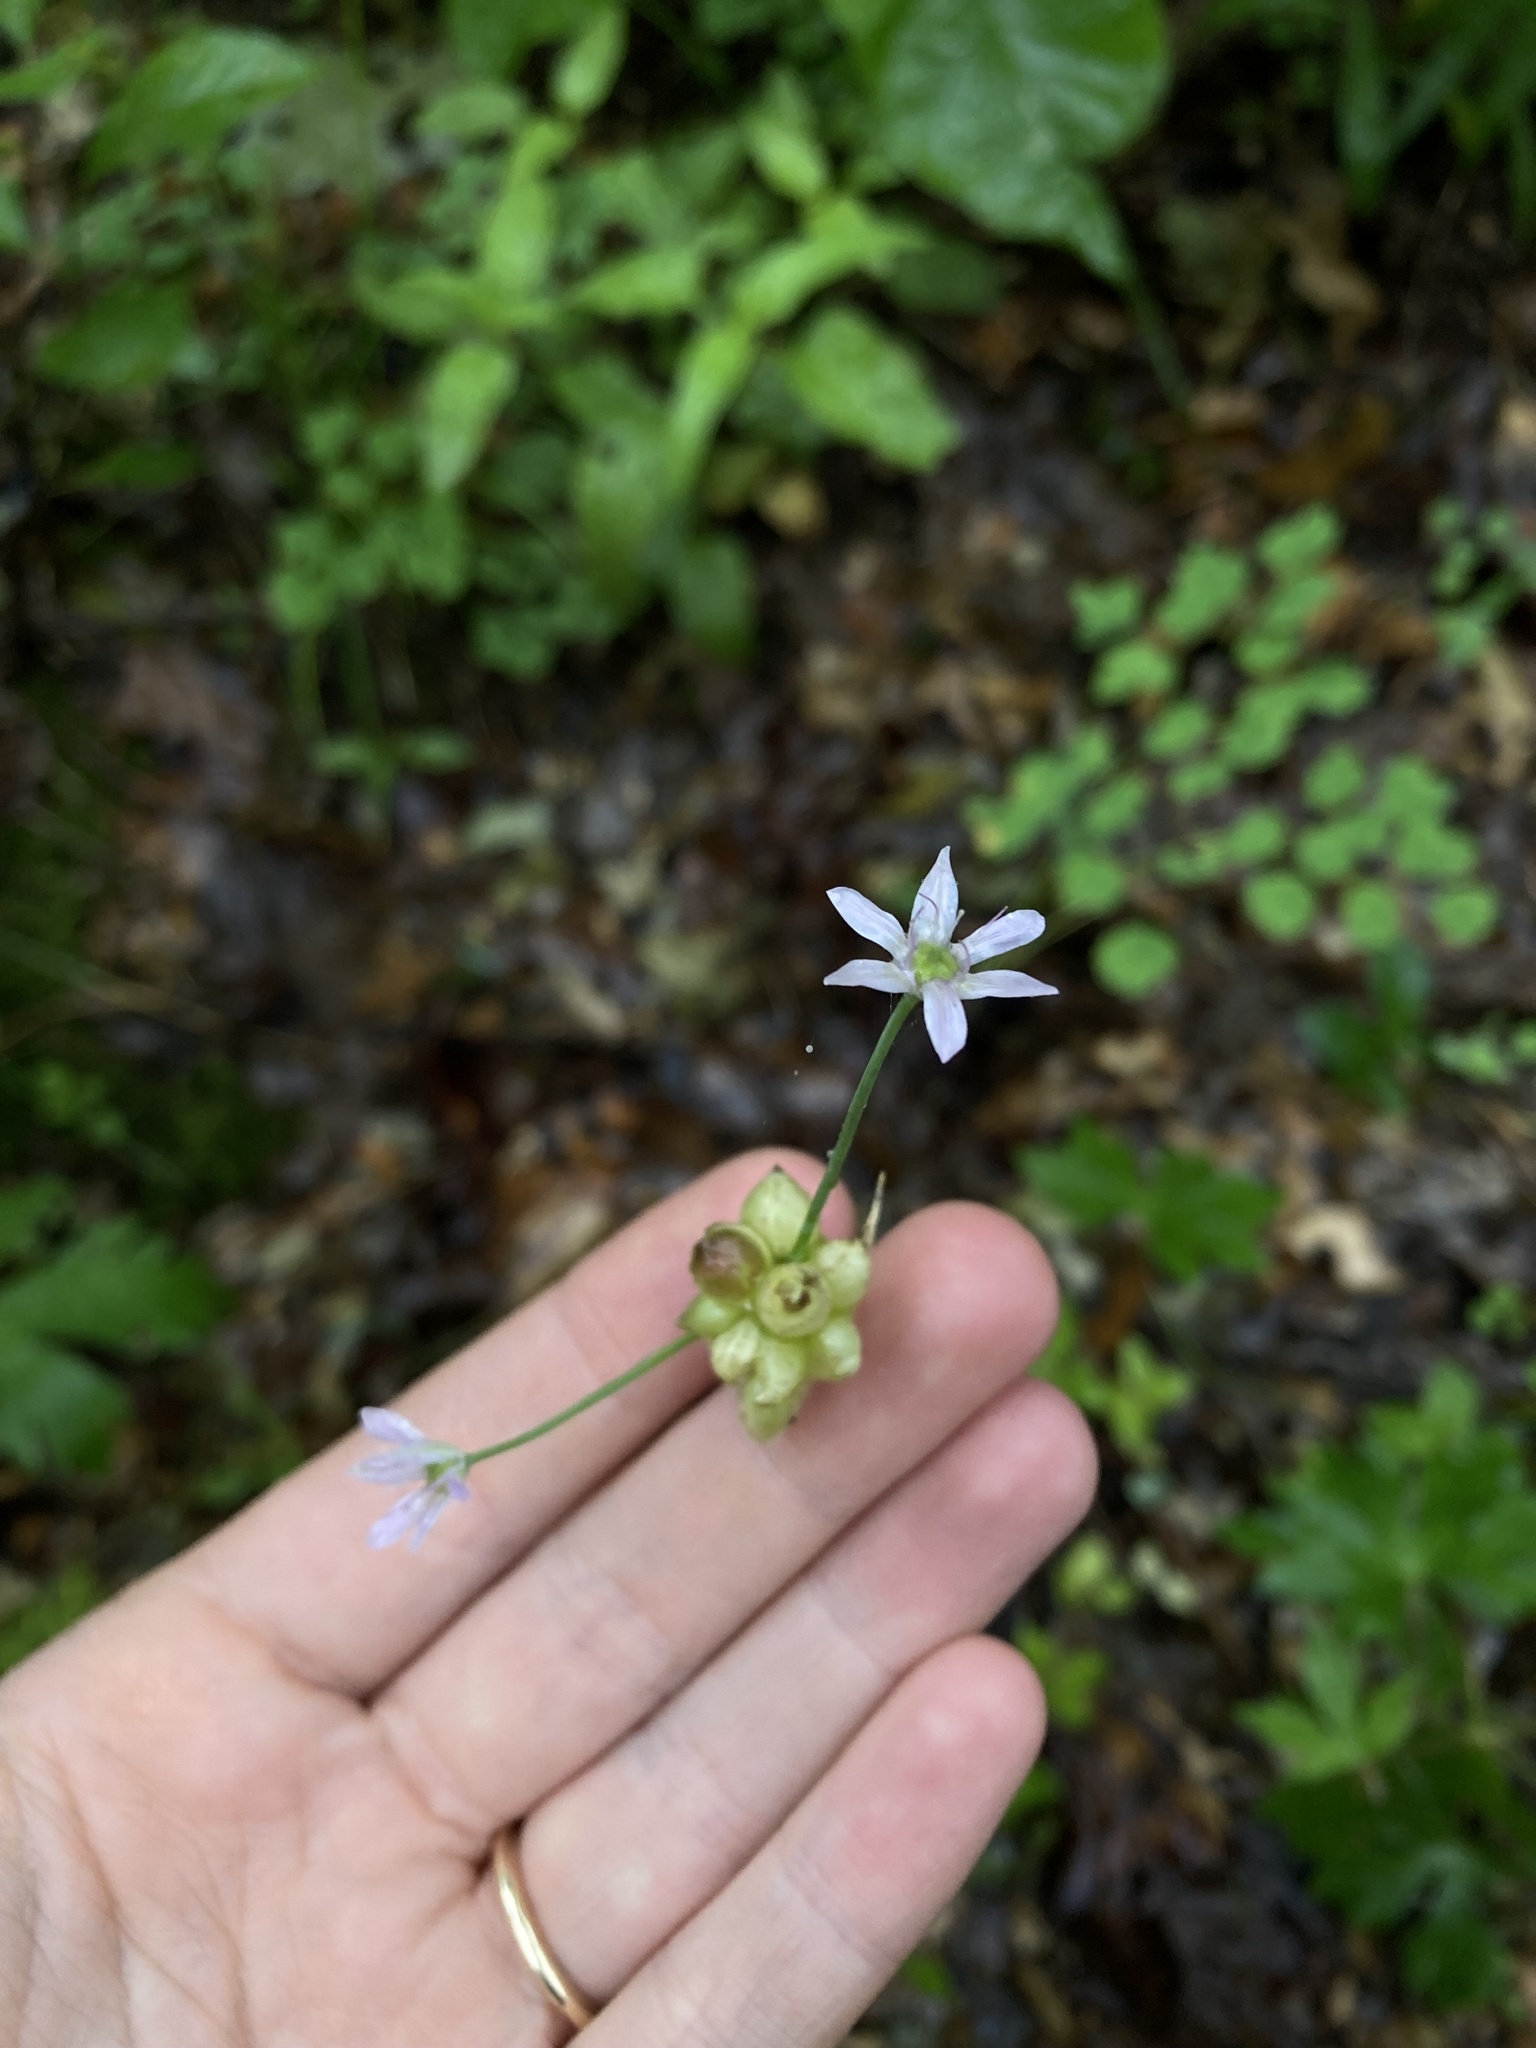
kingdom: Plantae
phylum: Tracheophyta
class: Liliopsida
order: Asparagales
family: Amaryllidaceae
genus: Allium
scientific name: Allium canadense
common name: Meadow garlic
